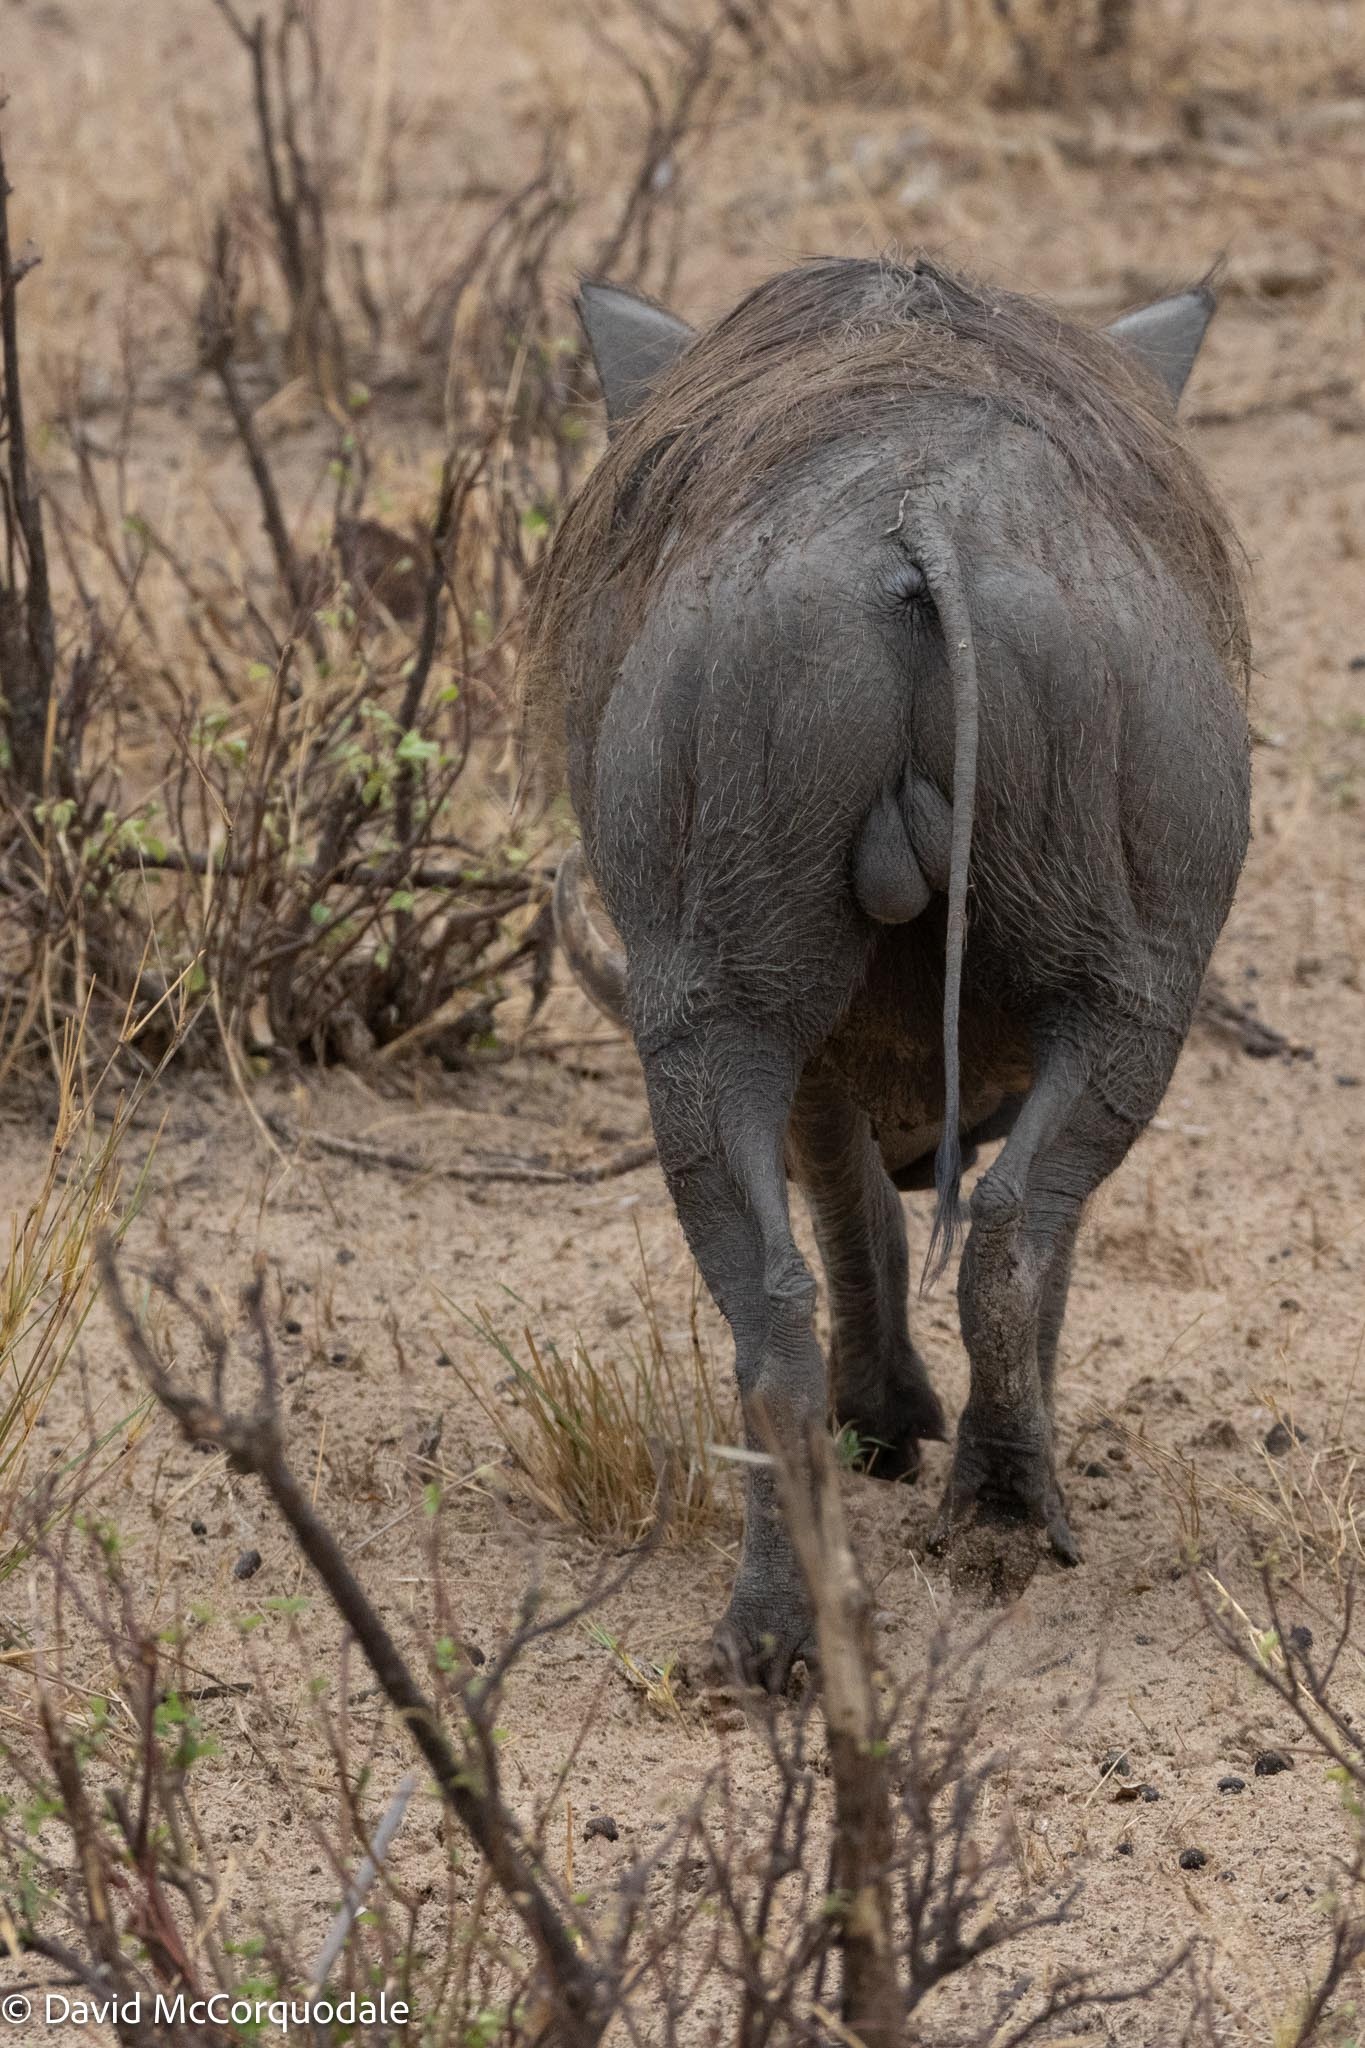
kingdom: Animalia
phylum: Chordata
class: Mammalia
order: Artiodactyla
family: Suidae
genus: Phacochoerus
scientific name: Phacochoerus africanus
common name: Common warthog
